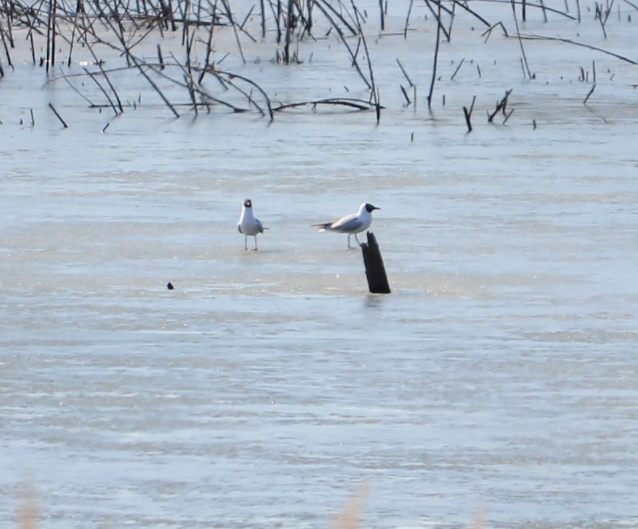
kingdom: Animalia
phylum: Chordata
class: Aves
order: Charadriiformes
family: Laridae
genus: Chroicocephalus
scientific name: Chroicocephalus ridibundus
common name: Black-headed gull
